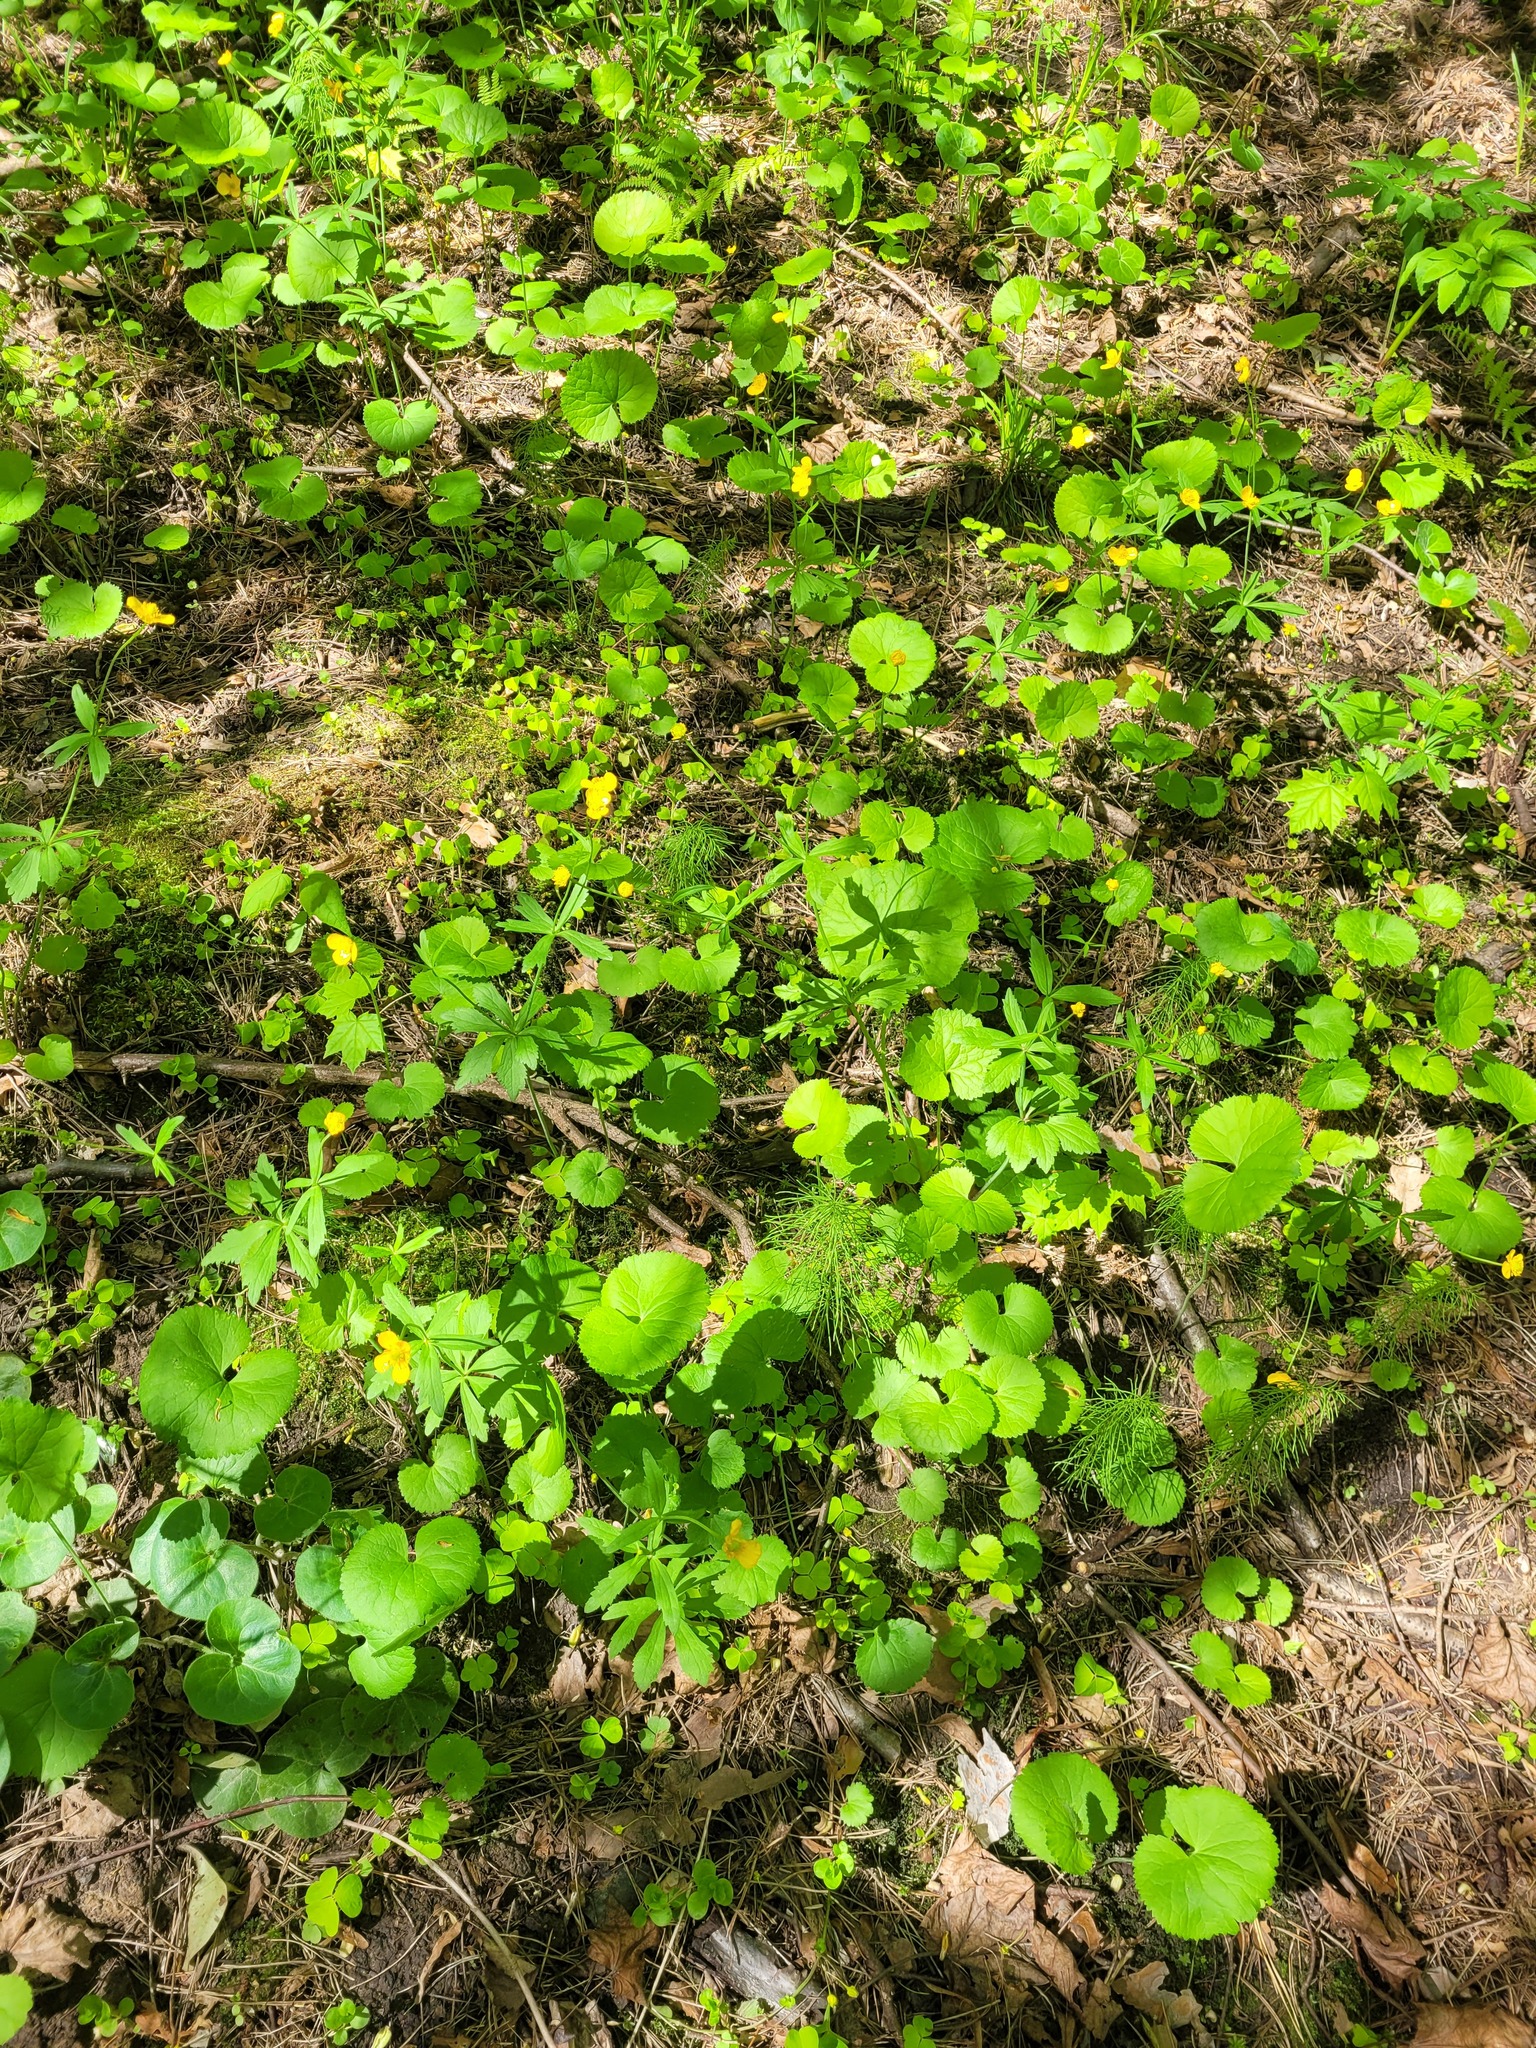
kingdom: Plantae
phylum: Tracheophyta
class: Magnoliopsida
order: Ranunculales
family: Ranunculaceae
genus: Ranunculus
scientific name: Ranunculus cassubicus
